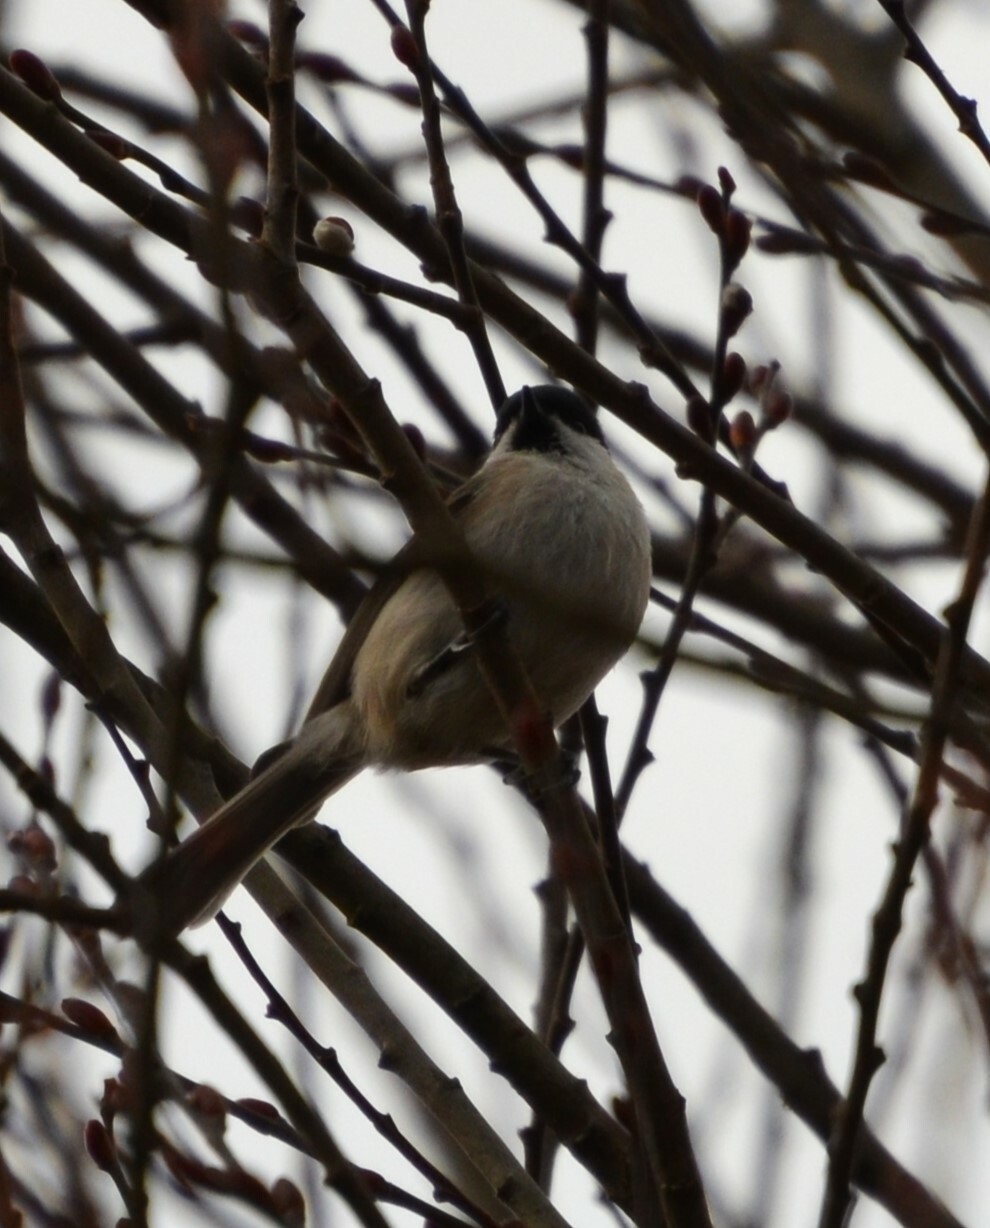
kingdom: Animalia
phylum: Chordata
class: Aves
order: Passeriformes
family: Paridae
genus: Poecile
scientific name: Poecile palustris
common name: Marsh tit
